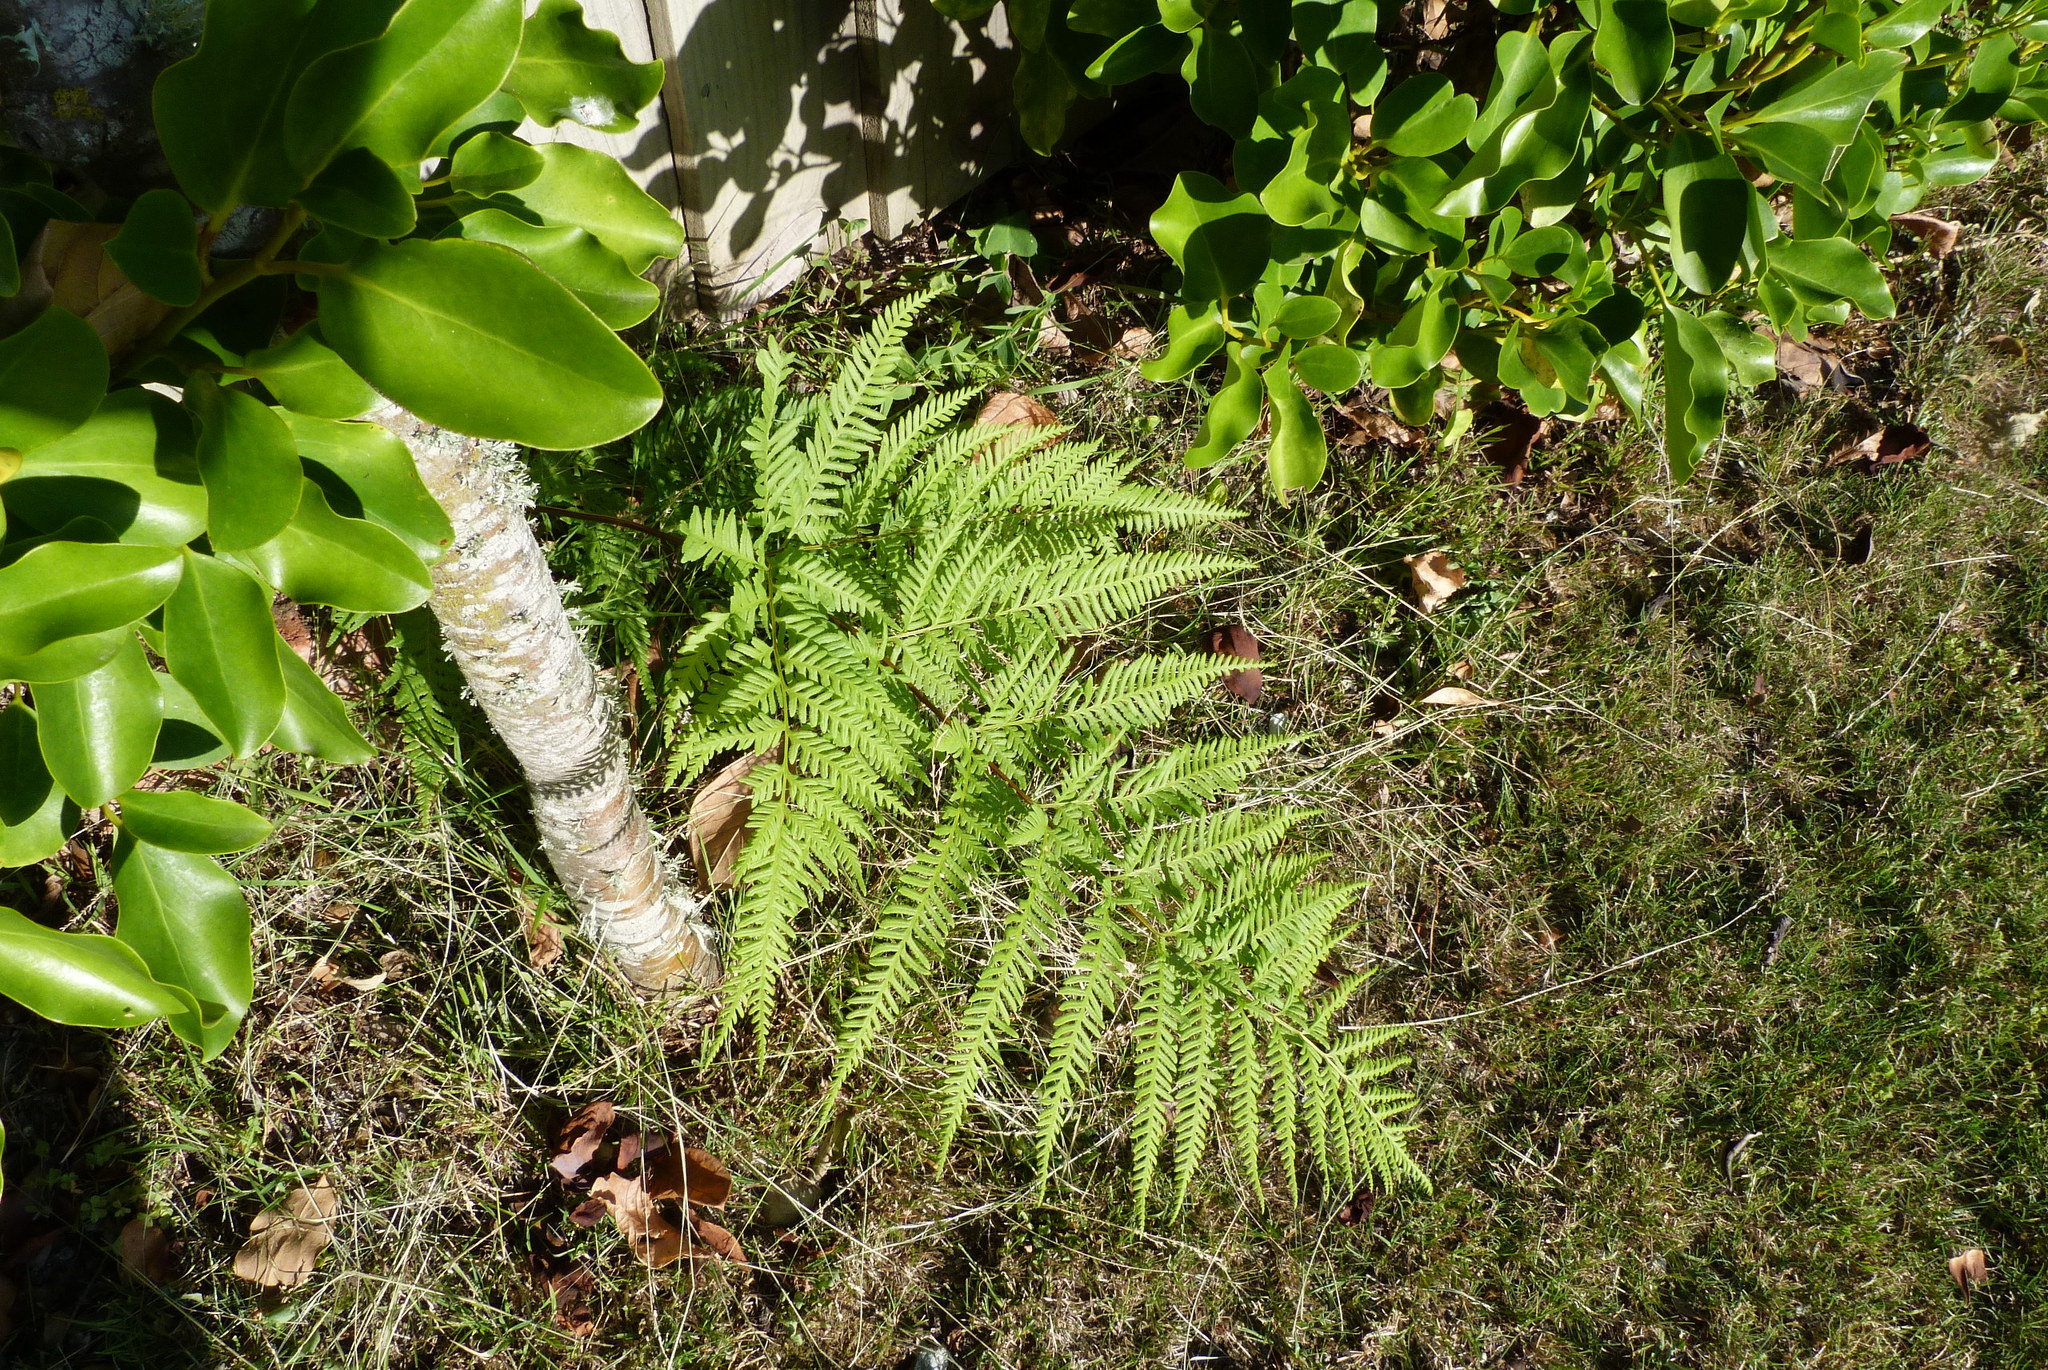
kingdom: Plantae
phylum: Tracheophyta
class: Polypodiopsida
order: Polypodiales
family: Pteridaceae
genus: Pteris
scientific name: Pteris tremula
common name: Australian brake
